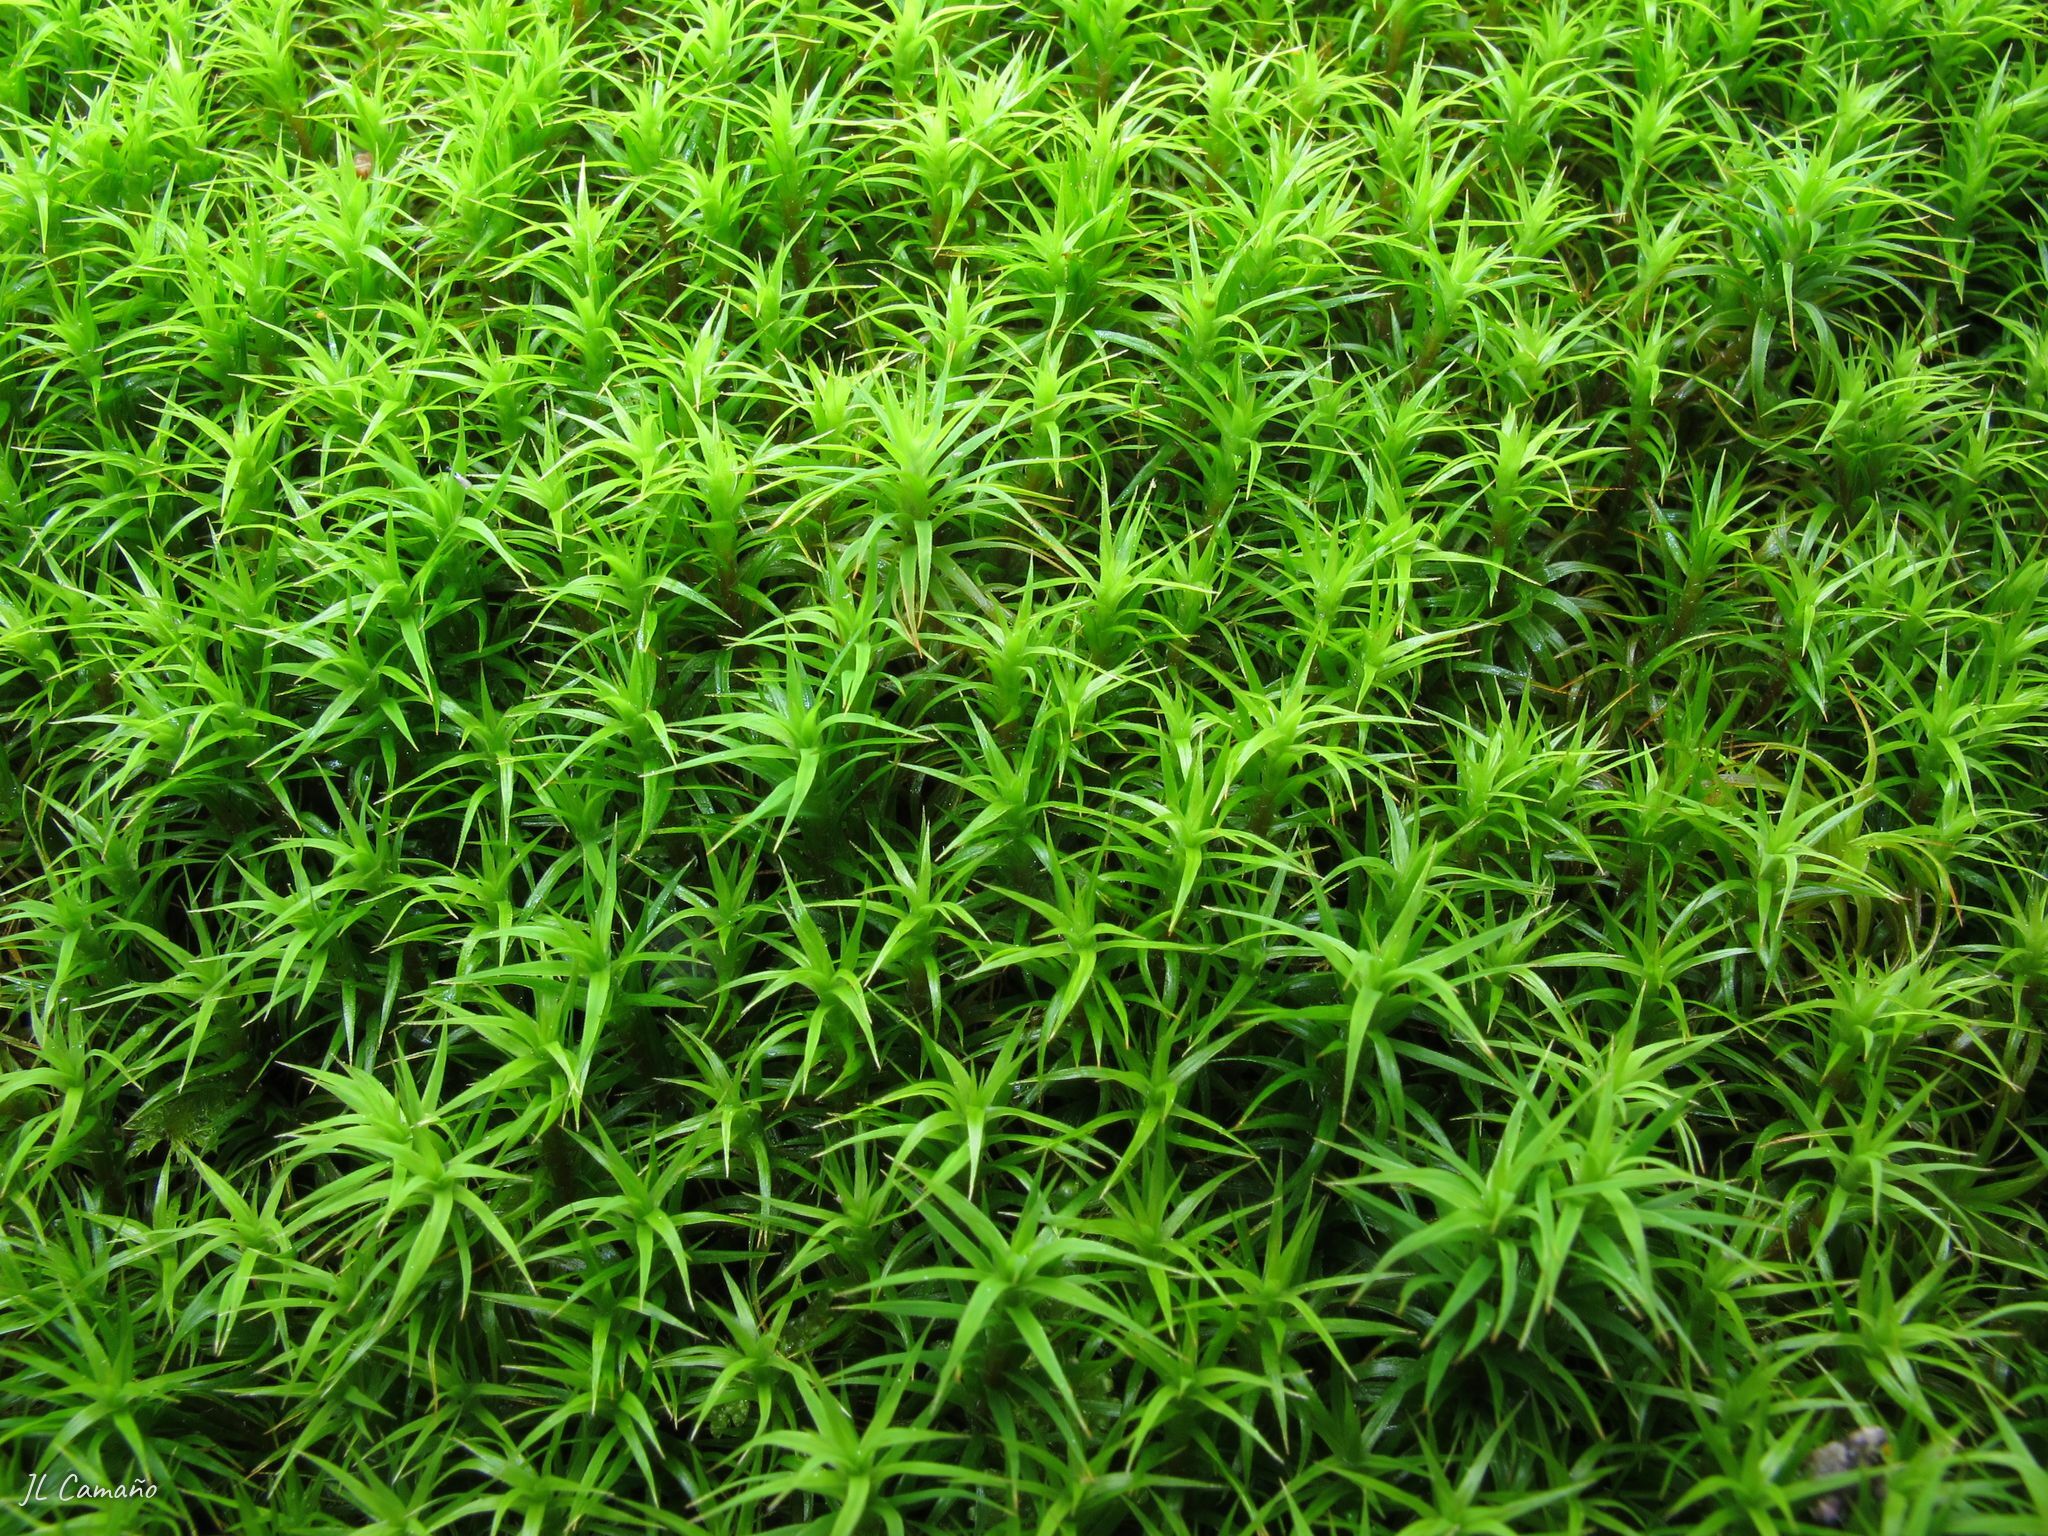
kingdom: Plantae
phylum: Bryophyta
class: Polytrichopsida
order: Polytrichales
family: Polytrichaceae
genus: Polytrichum
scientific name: Polytrichum formosum
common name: Bank haircap moss
